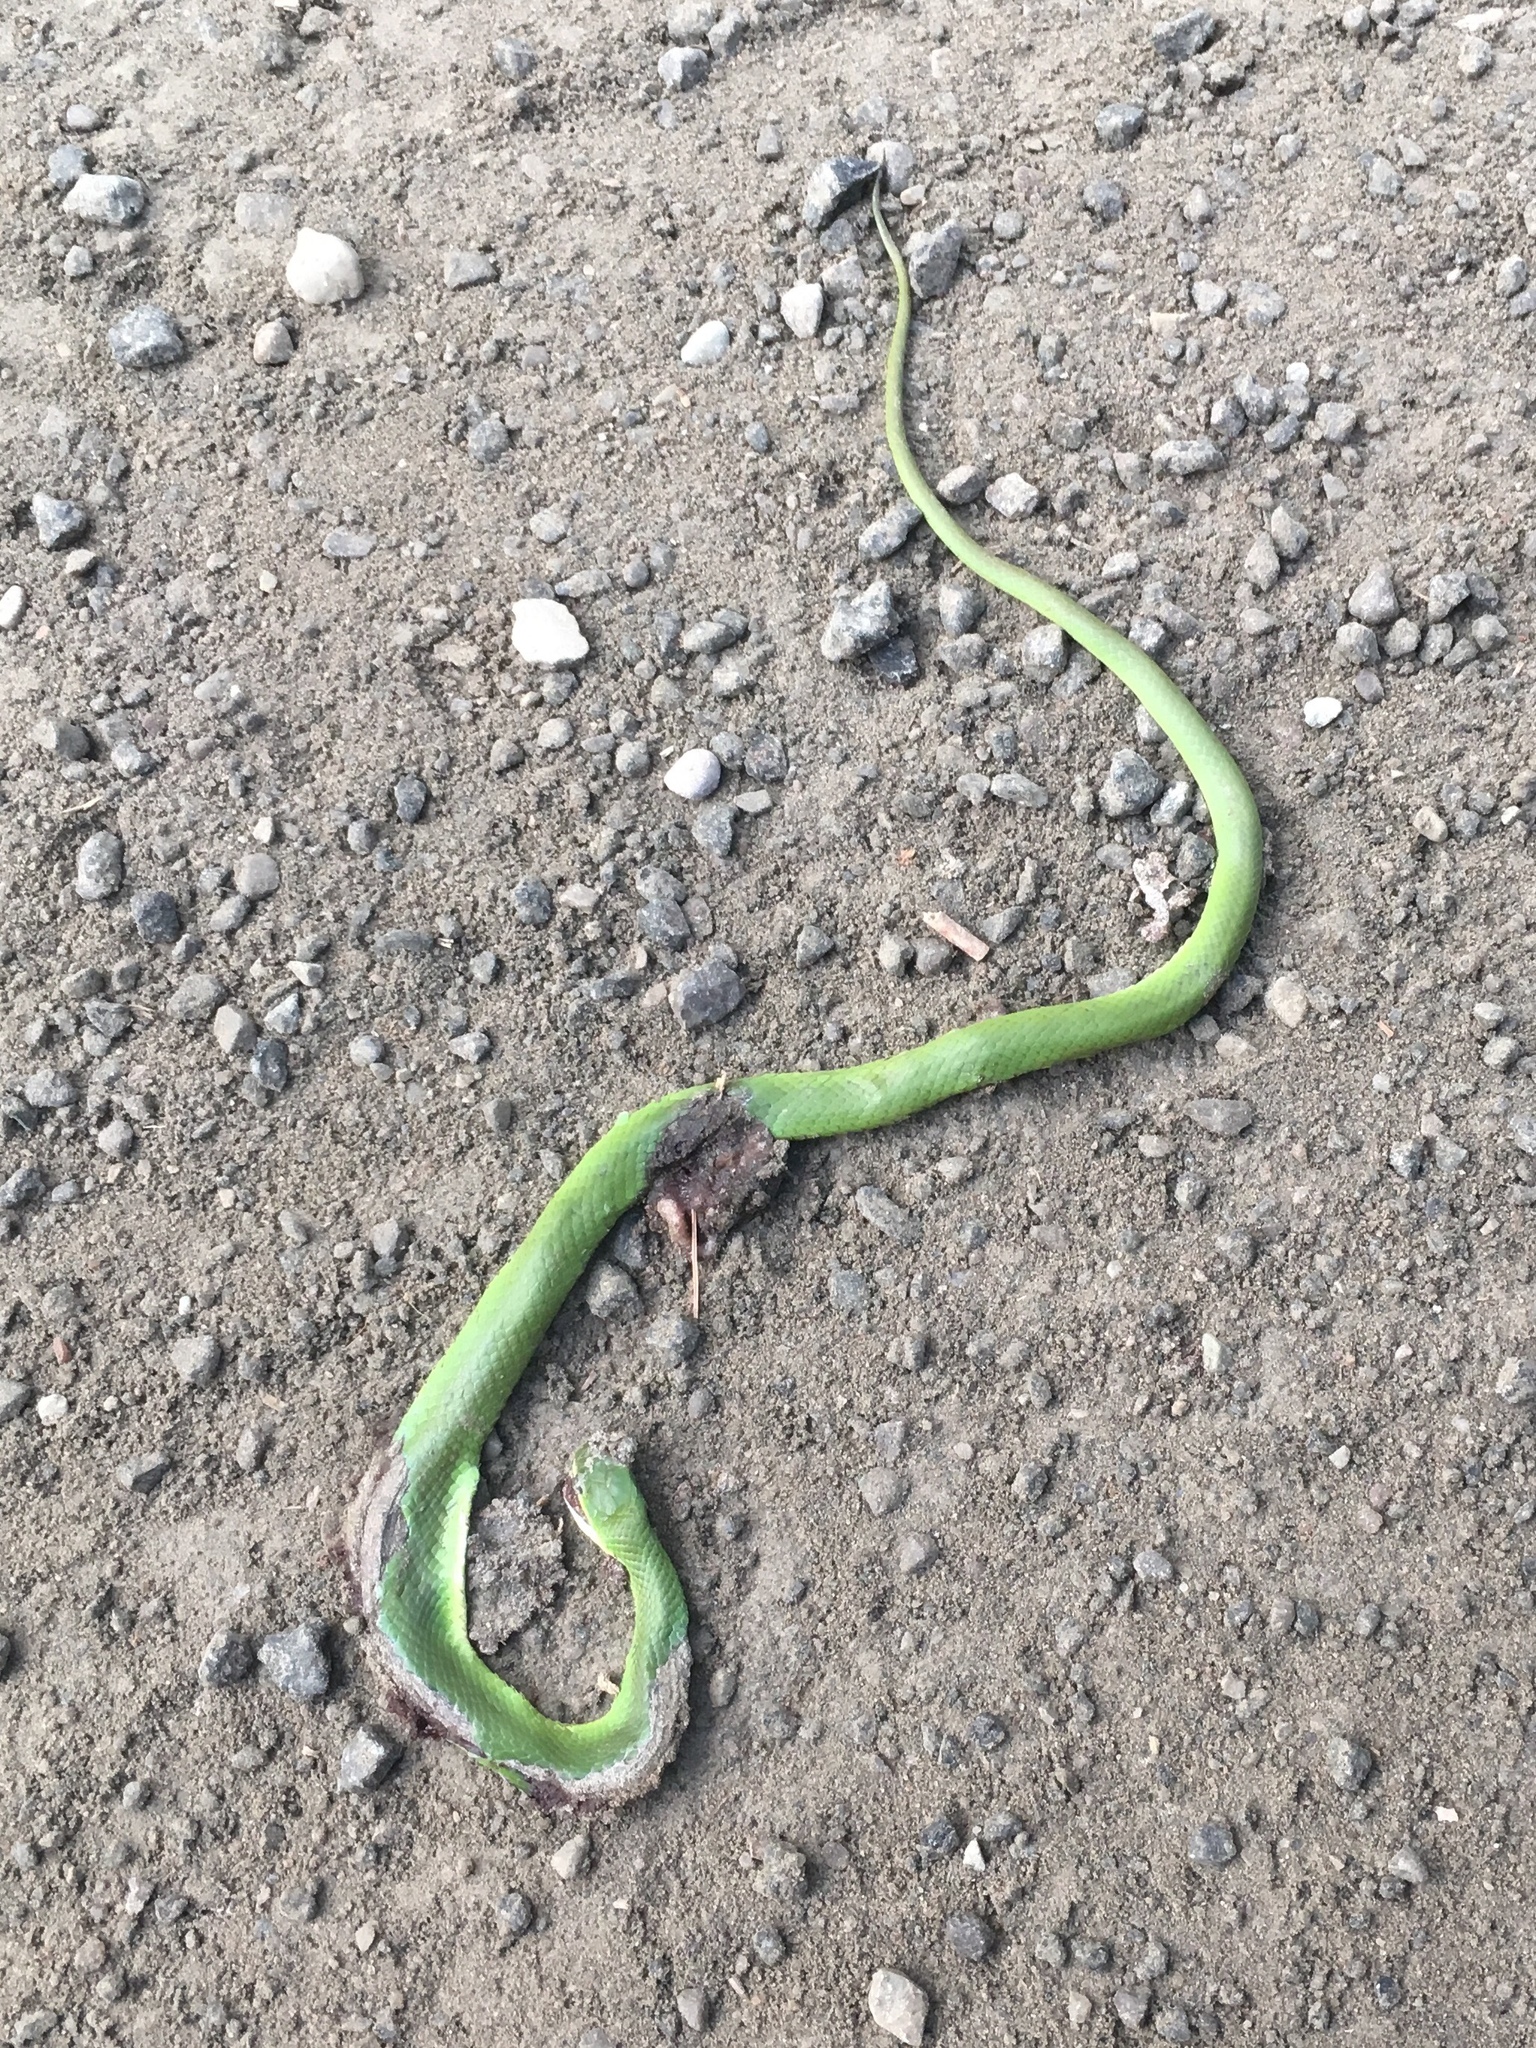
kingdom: Animalia
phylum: Chordata
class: Squamata
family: Colubridae
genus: Opheodrys
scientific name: Opheodrys vernalis
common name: Smooth green snake
